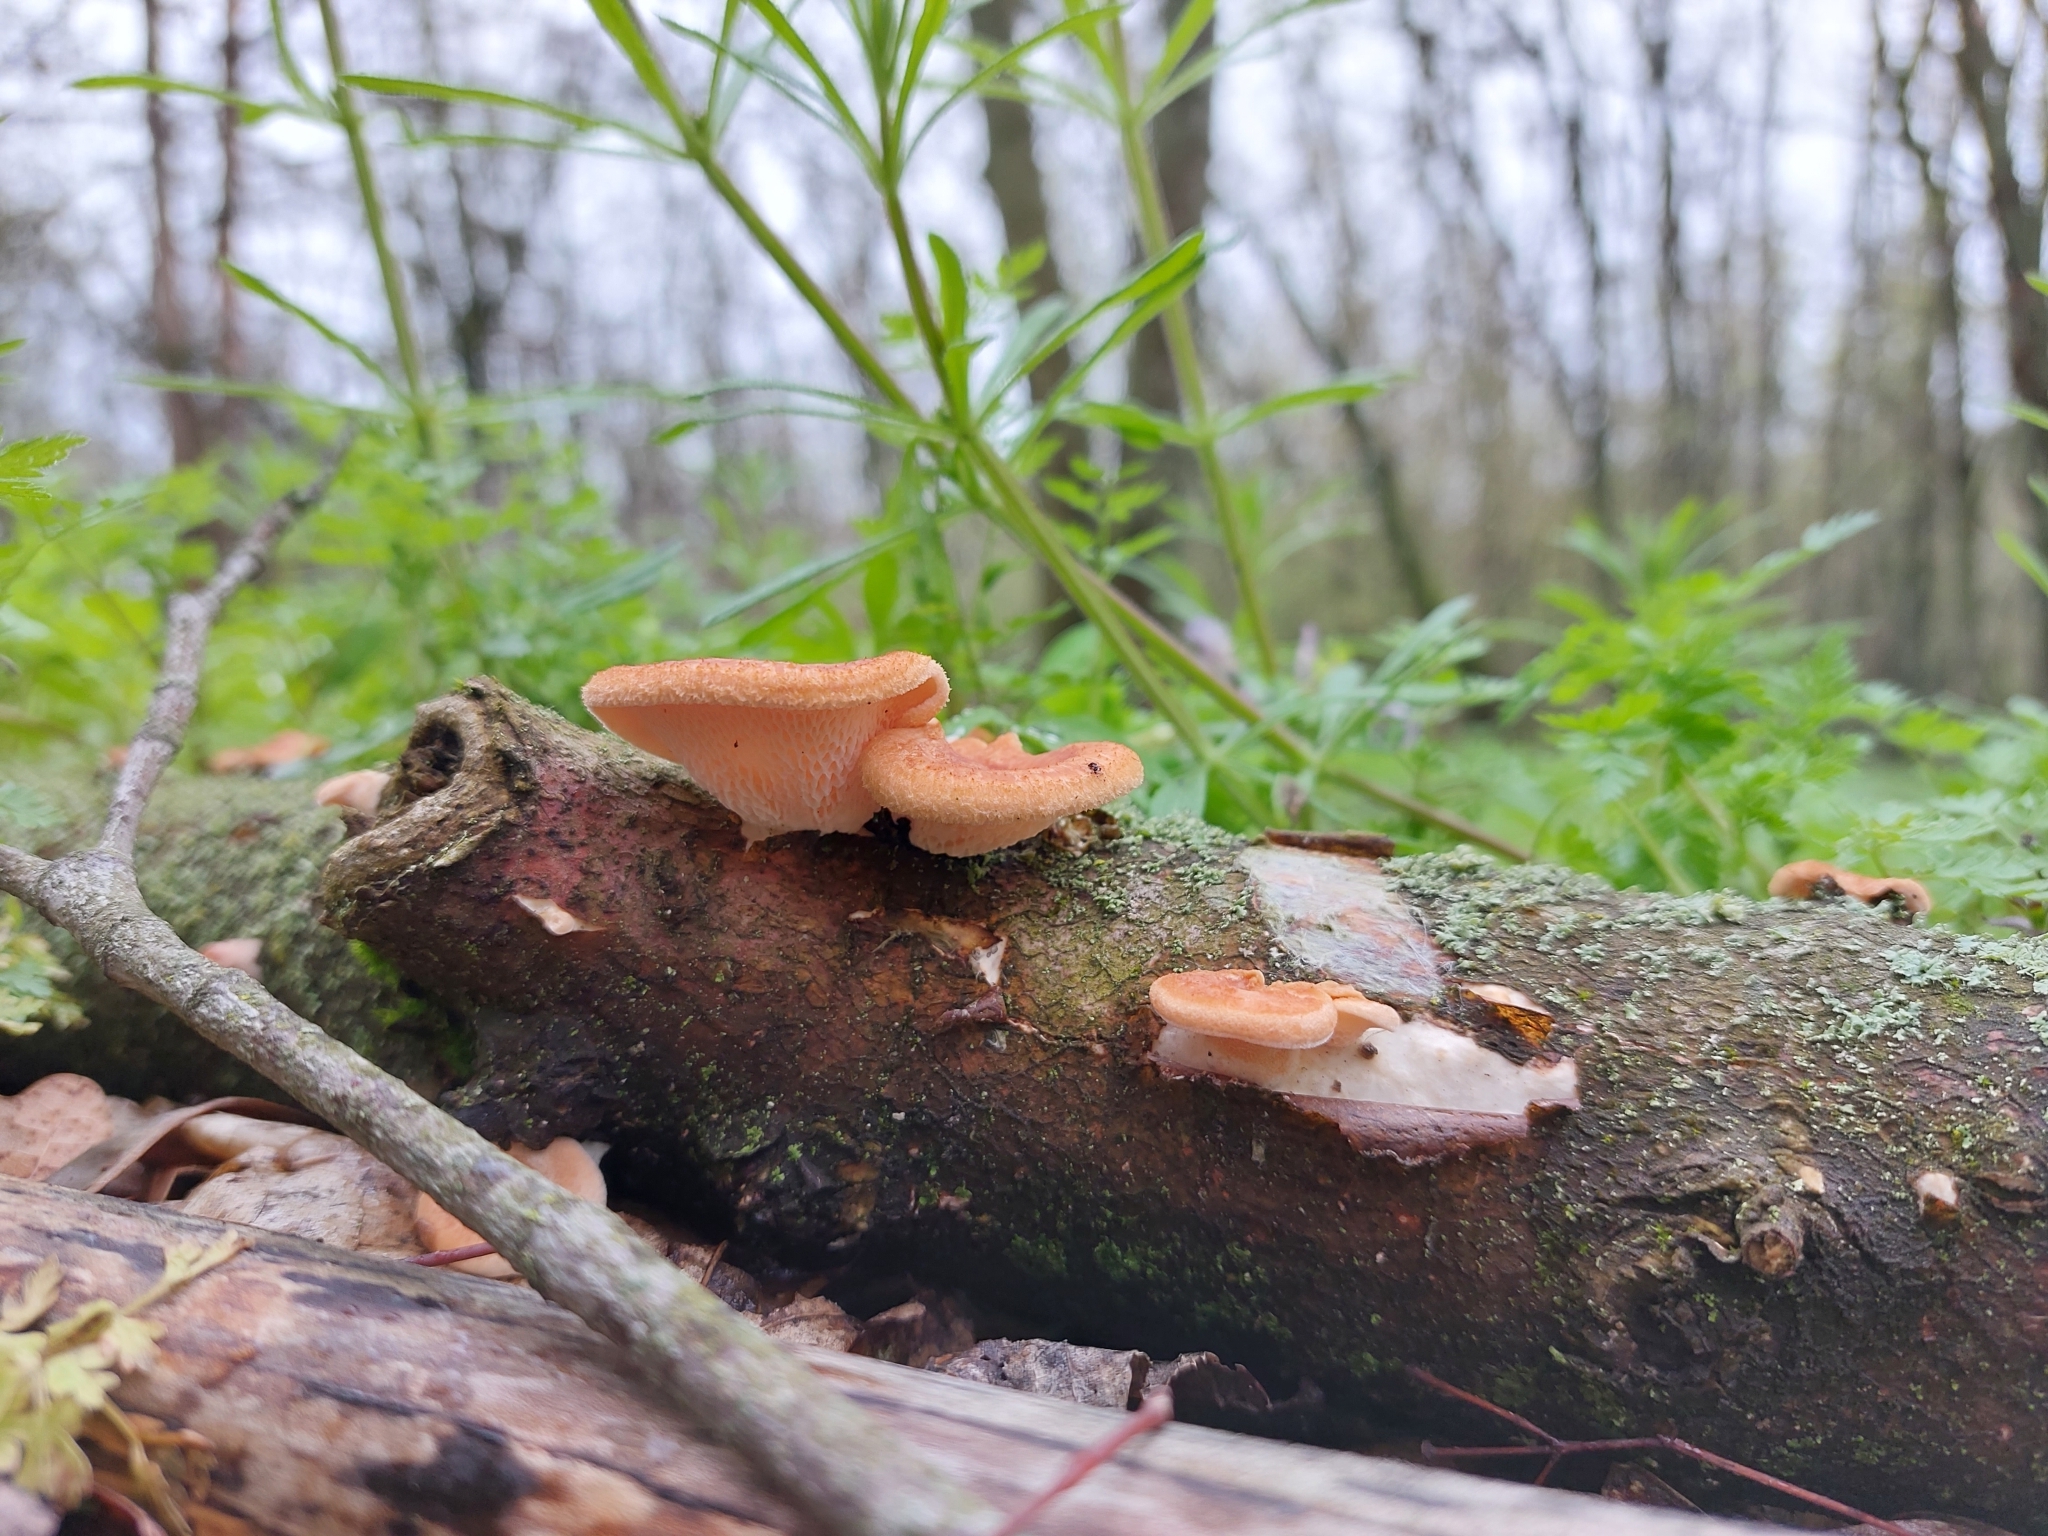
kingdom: Fungi
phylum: Basidiomycota
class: Agaricomycetes
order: Polyporales
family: Polyporaceae
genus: Neofavolus
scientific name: Neofavolus alveolaris
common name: Hexagonal-pored polypore
